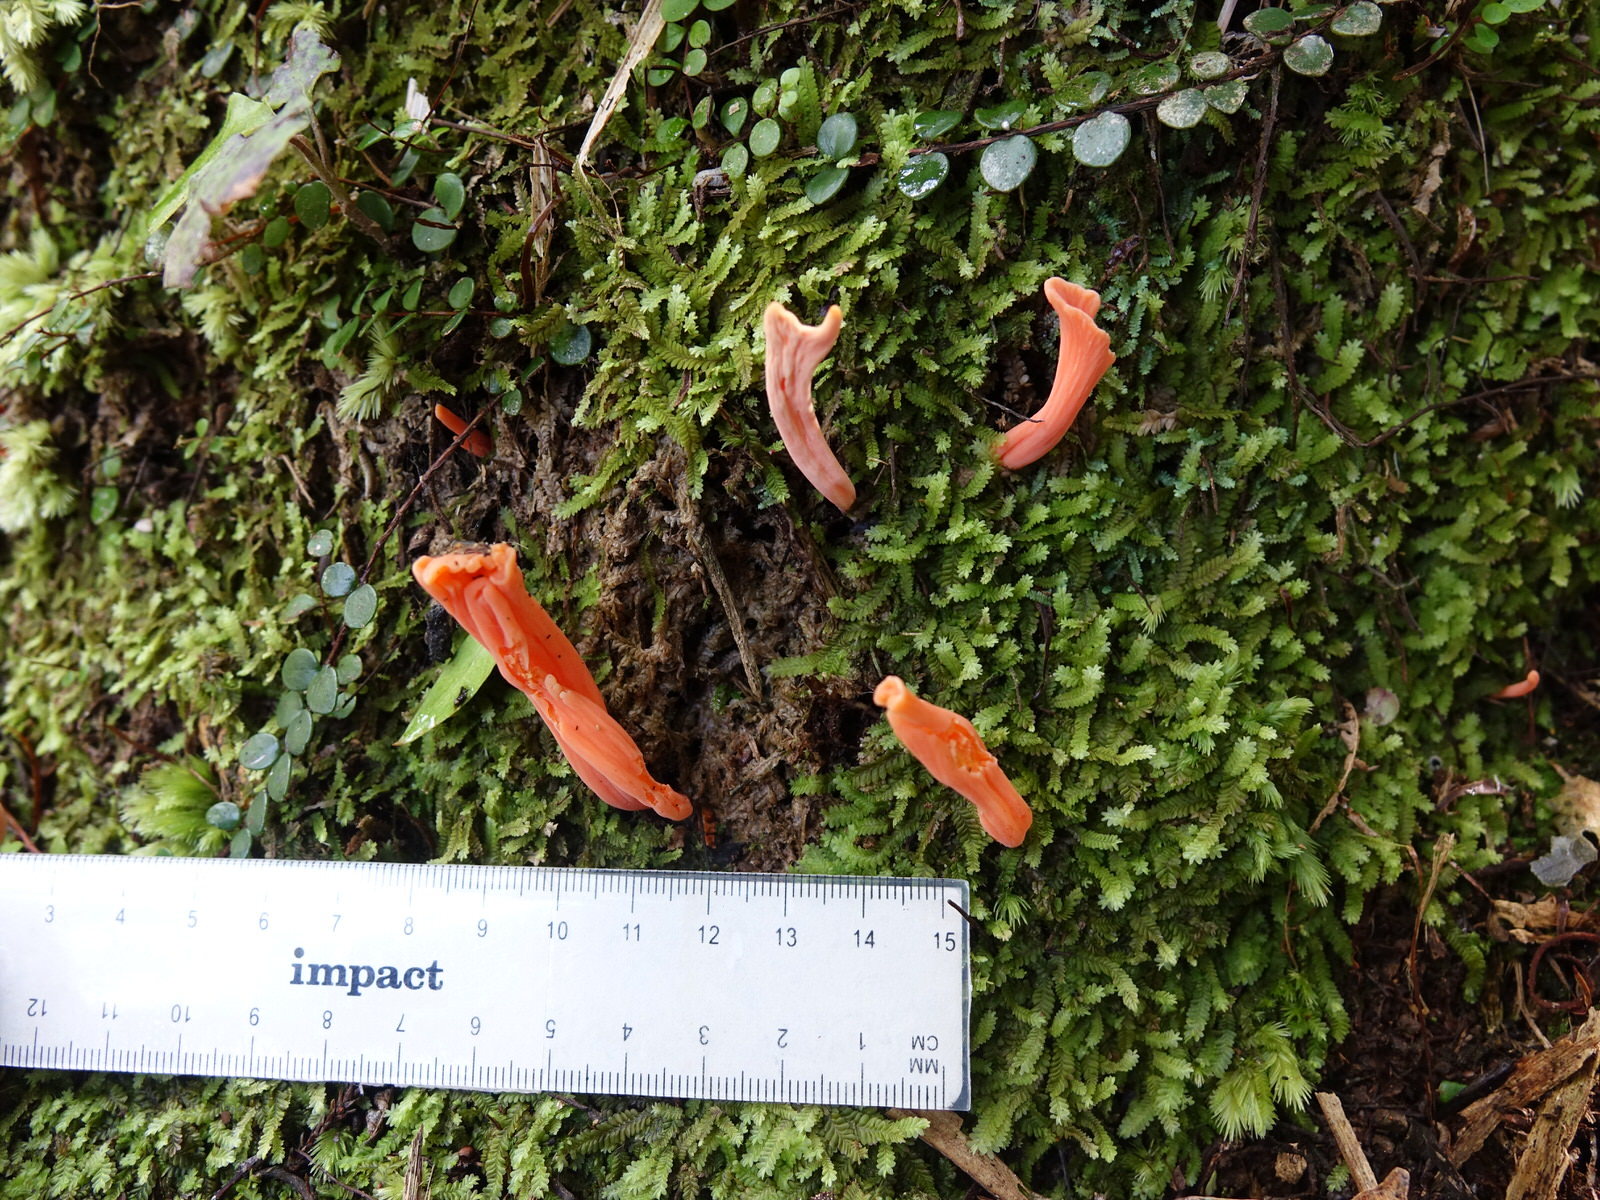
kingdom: Fungi
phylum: Basidiomycota
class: Agaricomycetes
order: Agaricales
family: Clavariaceae
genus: Clavulinopsis
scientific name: Clavulinopsis sulcata
